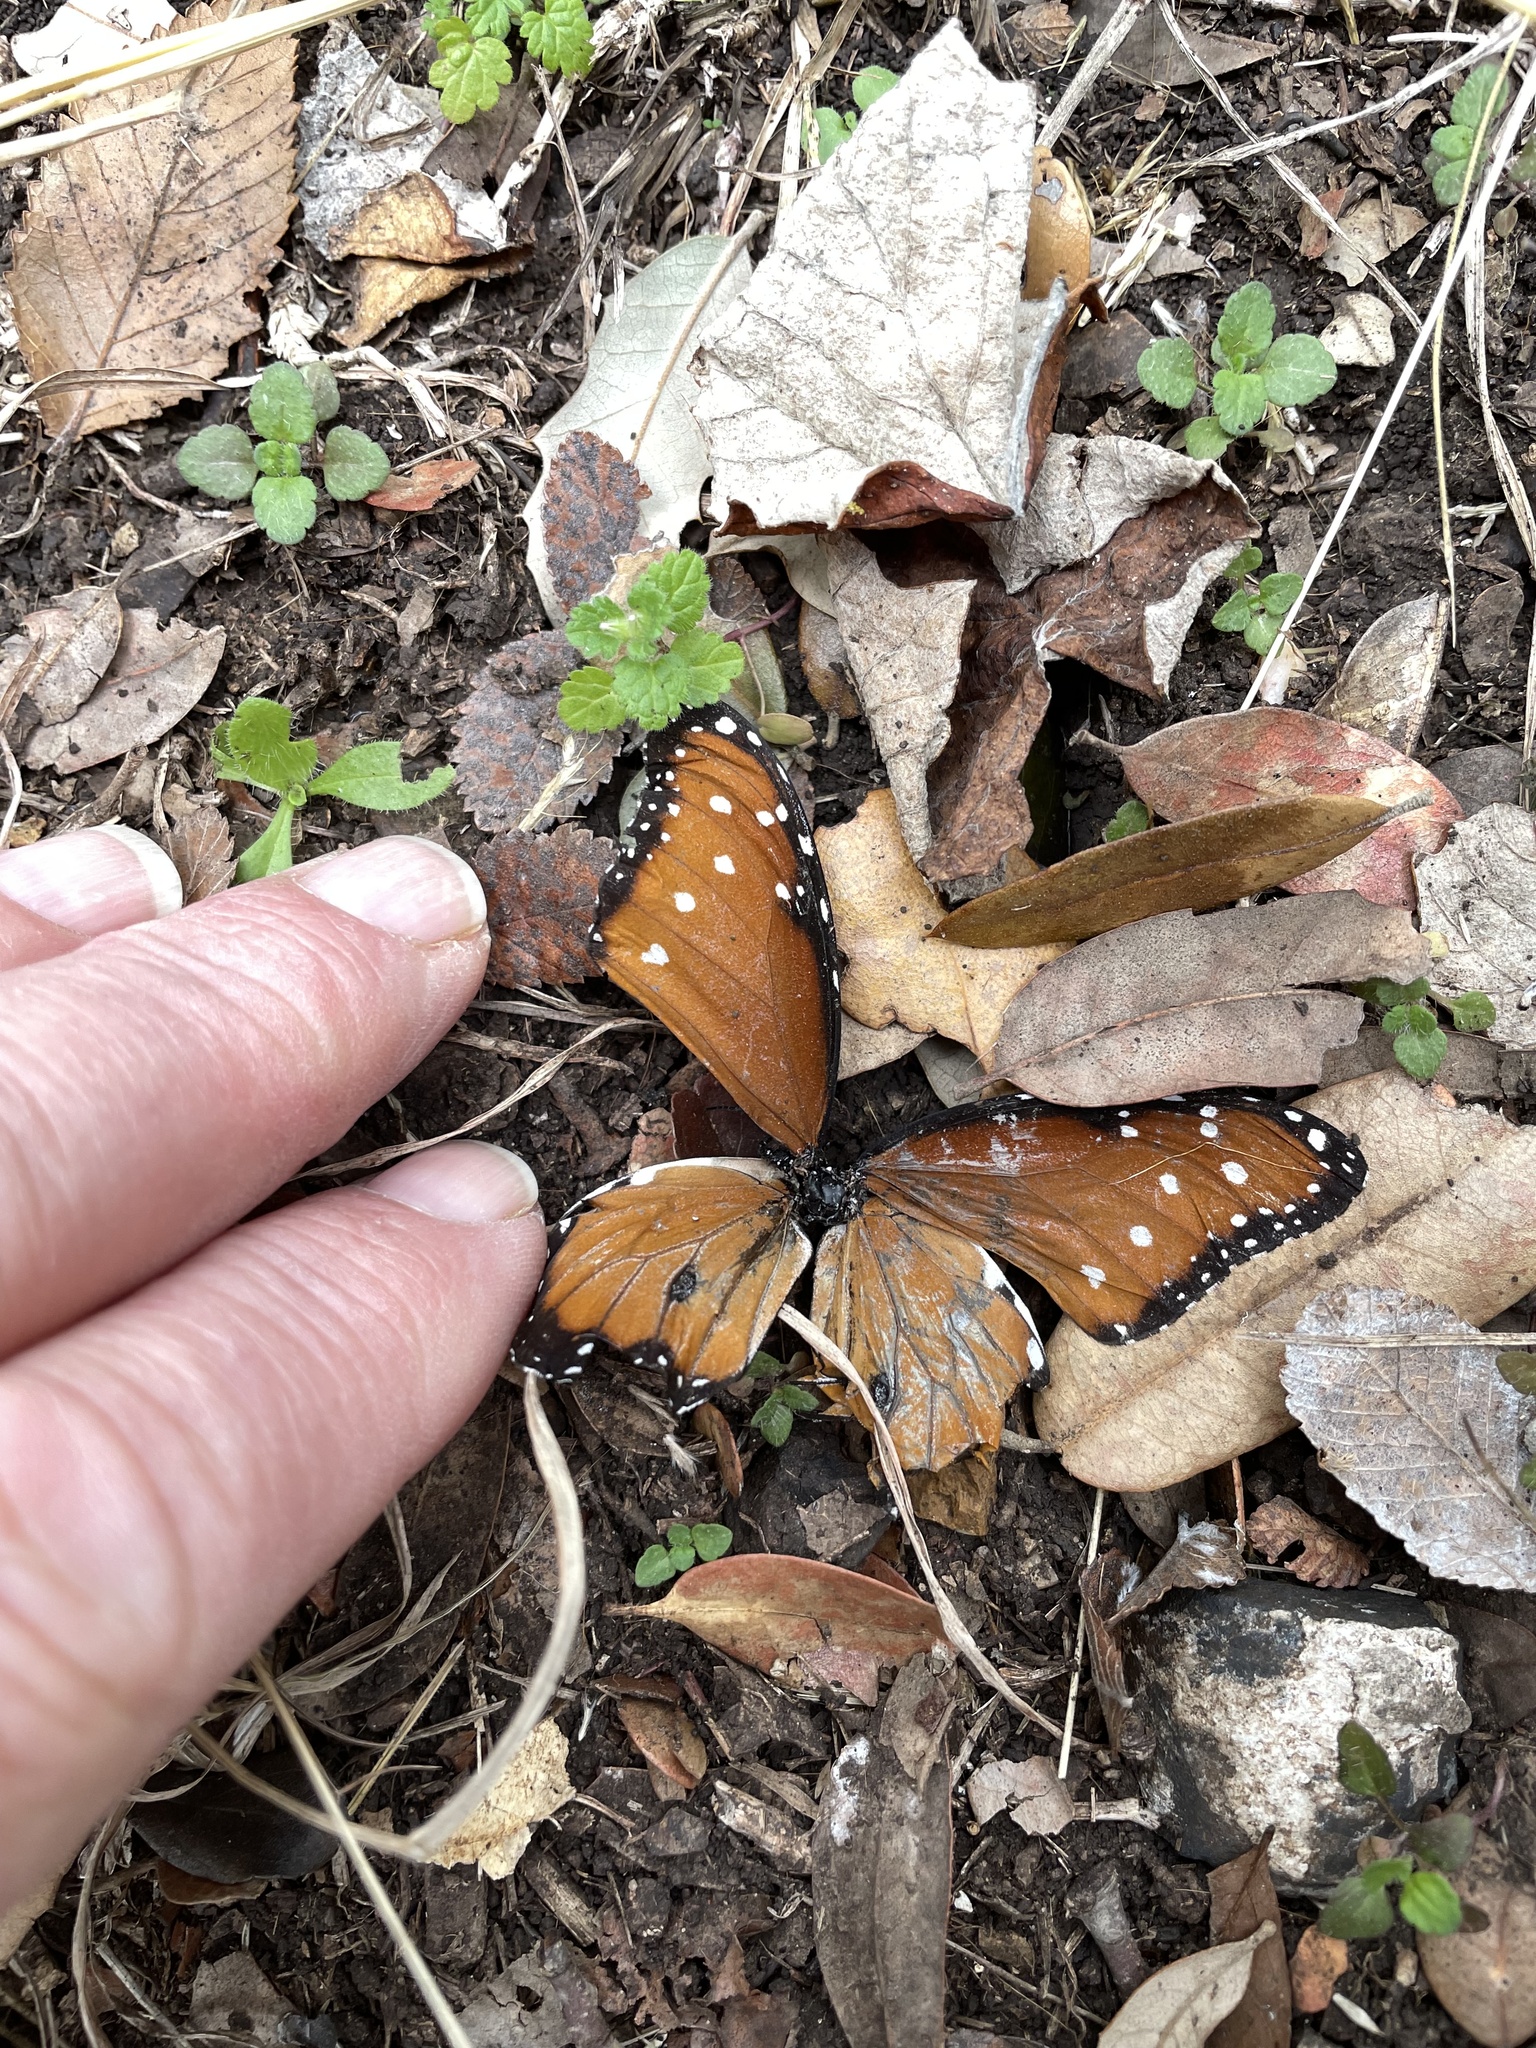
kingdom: Animalia
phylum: Arthropoda
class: Insecta
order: Lepidoptera
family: Nymphalidae
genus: Danaus
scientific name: Danaus gilippus
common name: Queen
